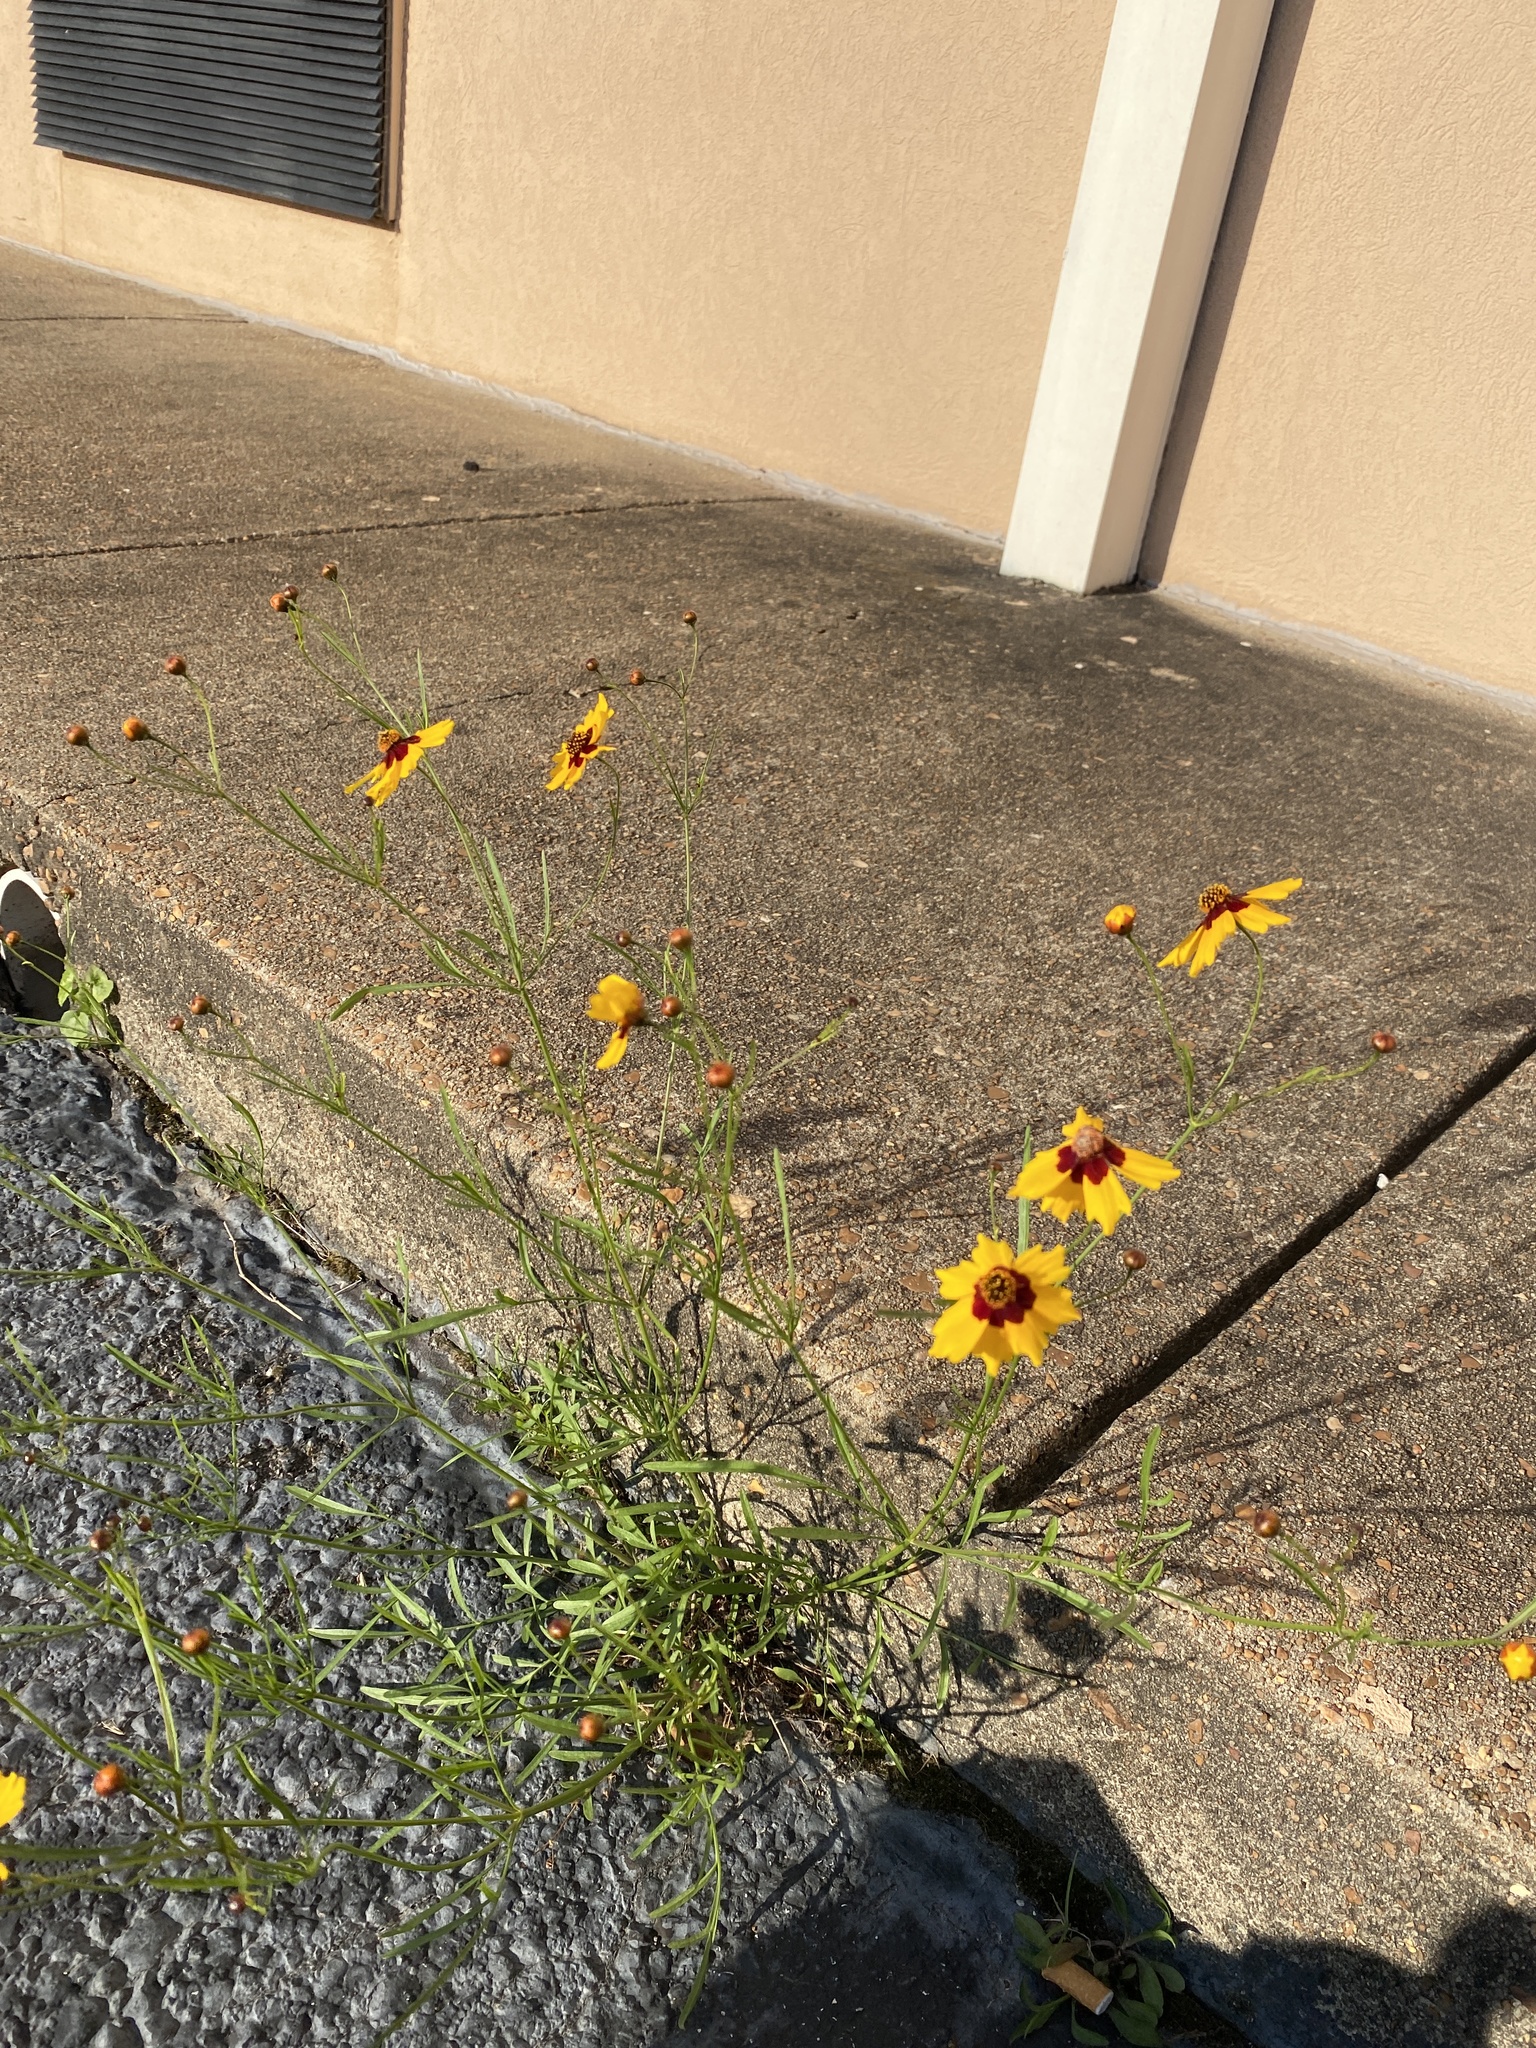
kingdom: Plantae
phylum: Tracheophyta
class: Magnoliopsida
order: Asterales
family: Asteraceae
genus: Coreopsis
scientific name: Coreopsis tinctoria
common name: Garden tickseed
